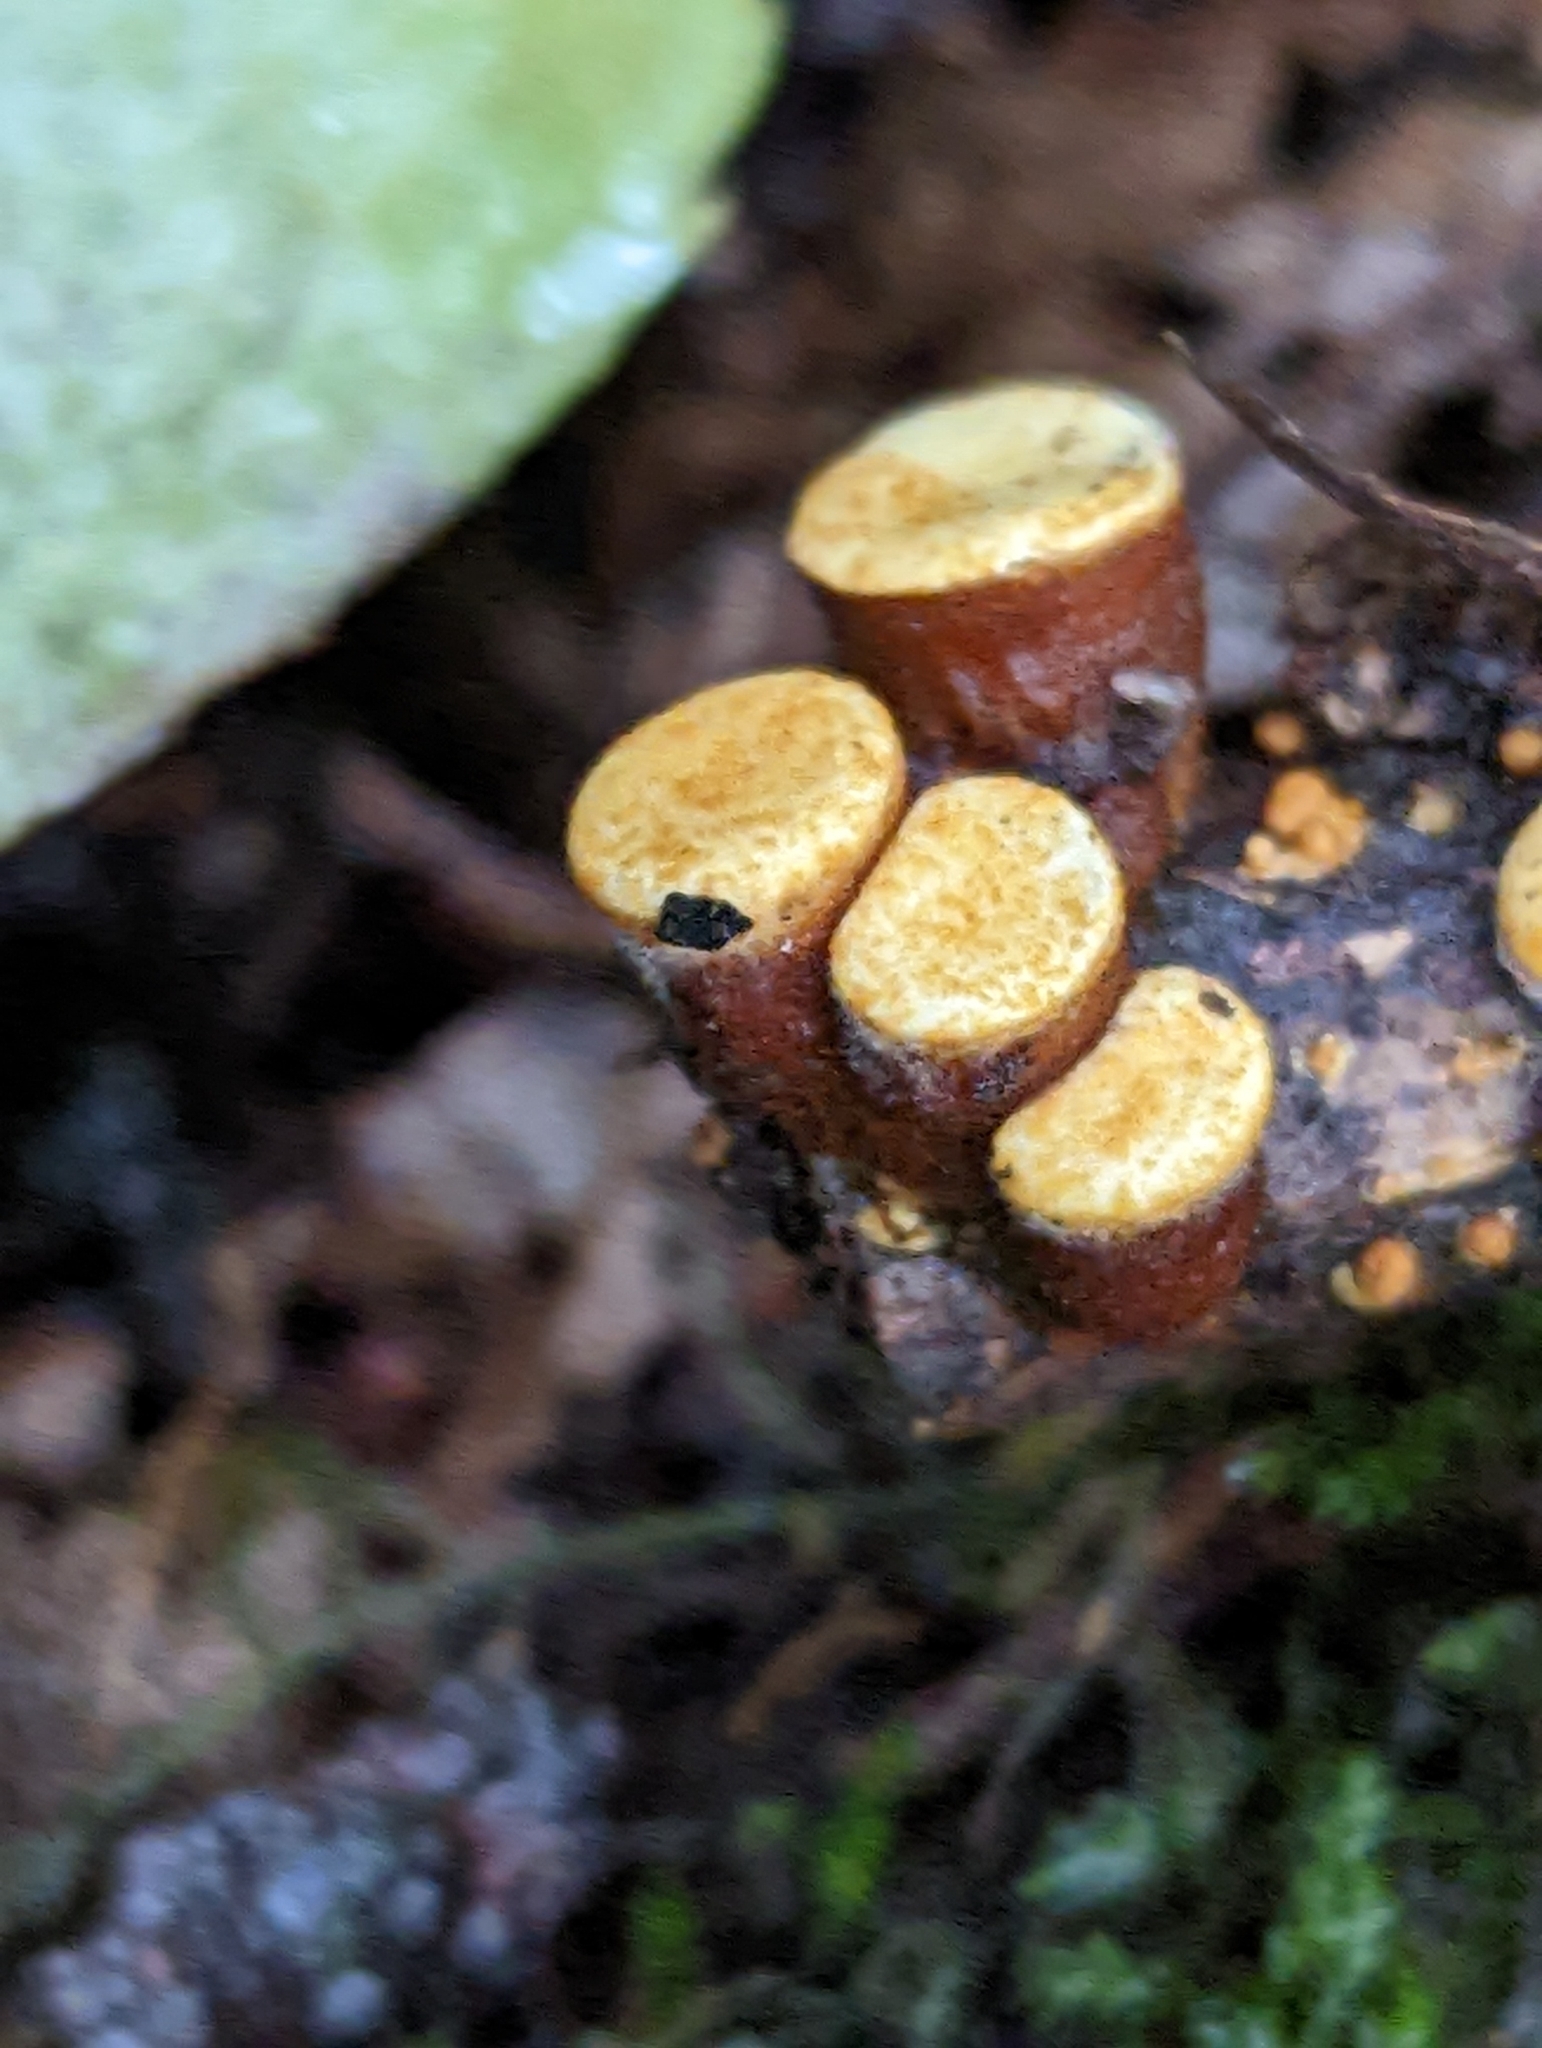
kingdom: Fungi
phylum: Basidiomycota
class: Agaricomycetes
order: Agaricales
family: Nidulariaceae
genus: Crucibulum
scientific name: Crucibulum laeve
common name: Common bird's nest
